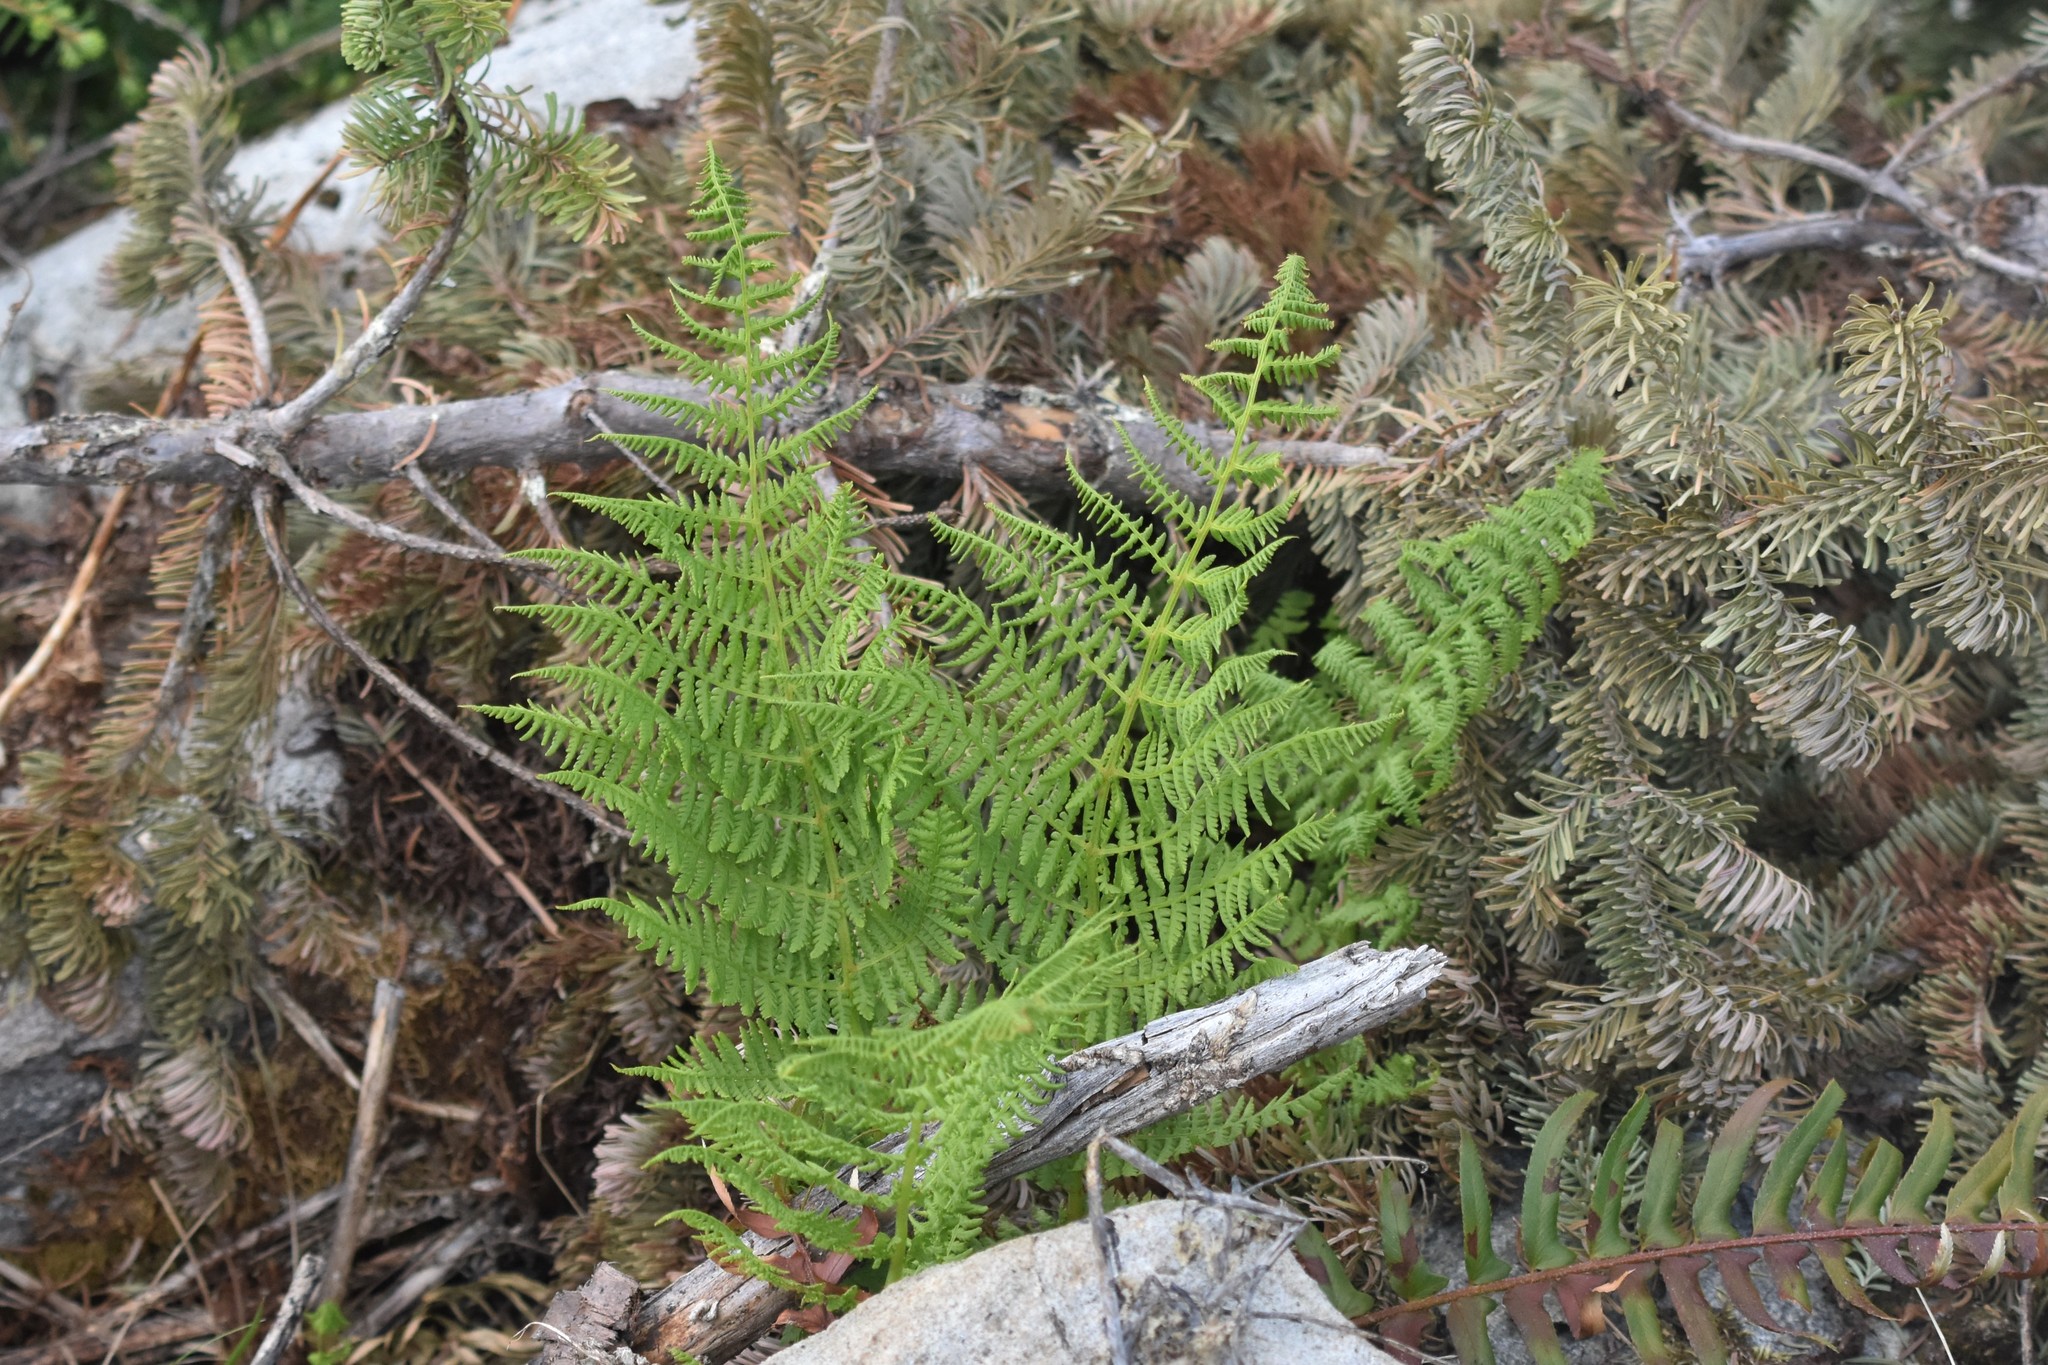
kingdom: Plantae
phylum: Tracheophyta
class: Polypodiopsida
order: Polypodiales
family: Athyriaceae
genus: Athyrium
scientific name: Athyrium filix-femina
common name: Lady fern
